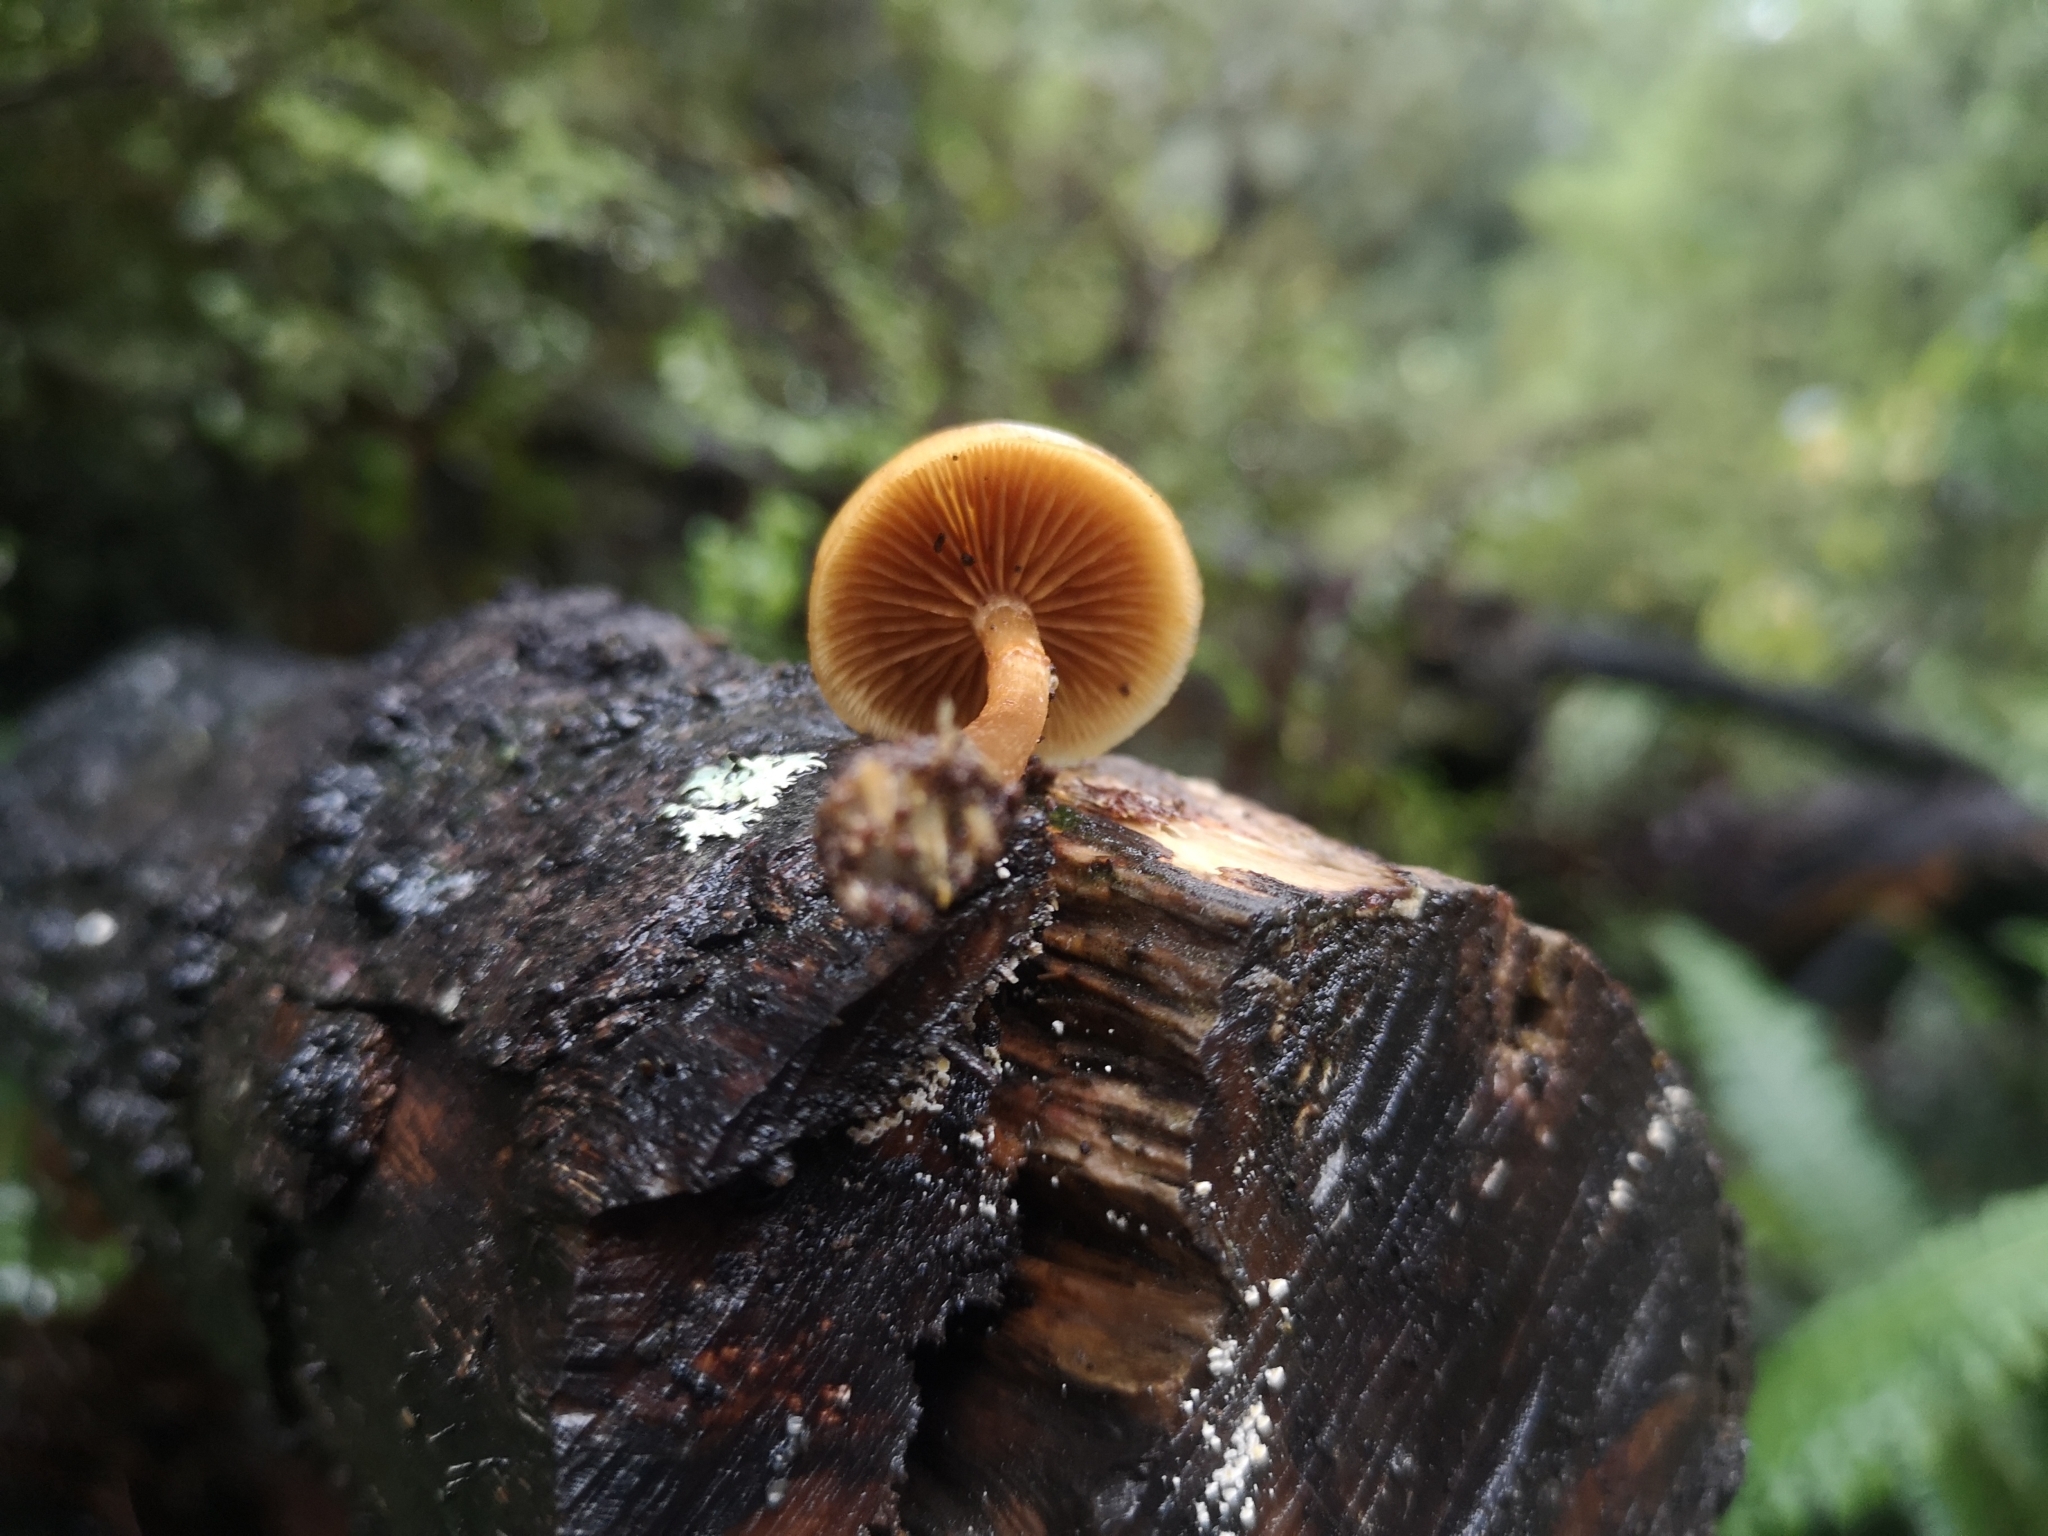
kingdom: Fungi
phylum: Basidiomycota
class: Agaricomycetes
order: Agaricales
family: Hymenogastraceae
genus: Galerina
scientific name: Galerina patagonica
